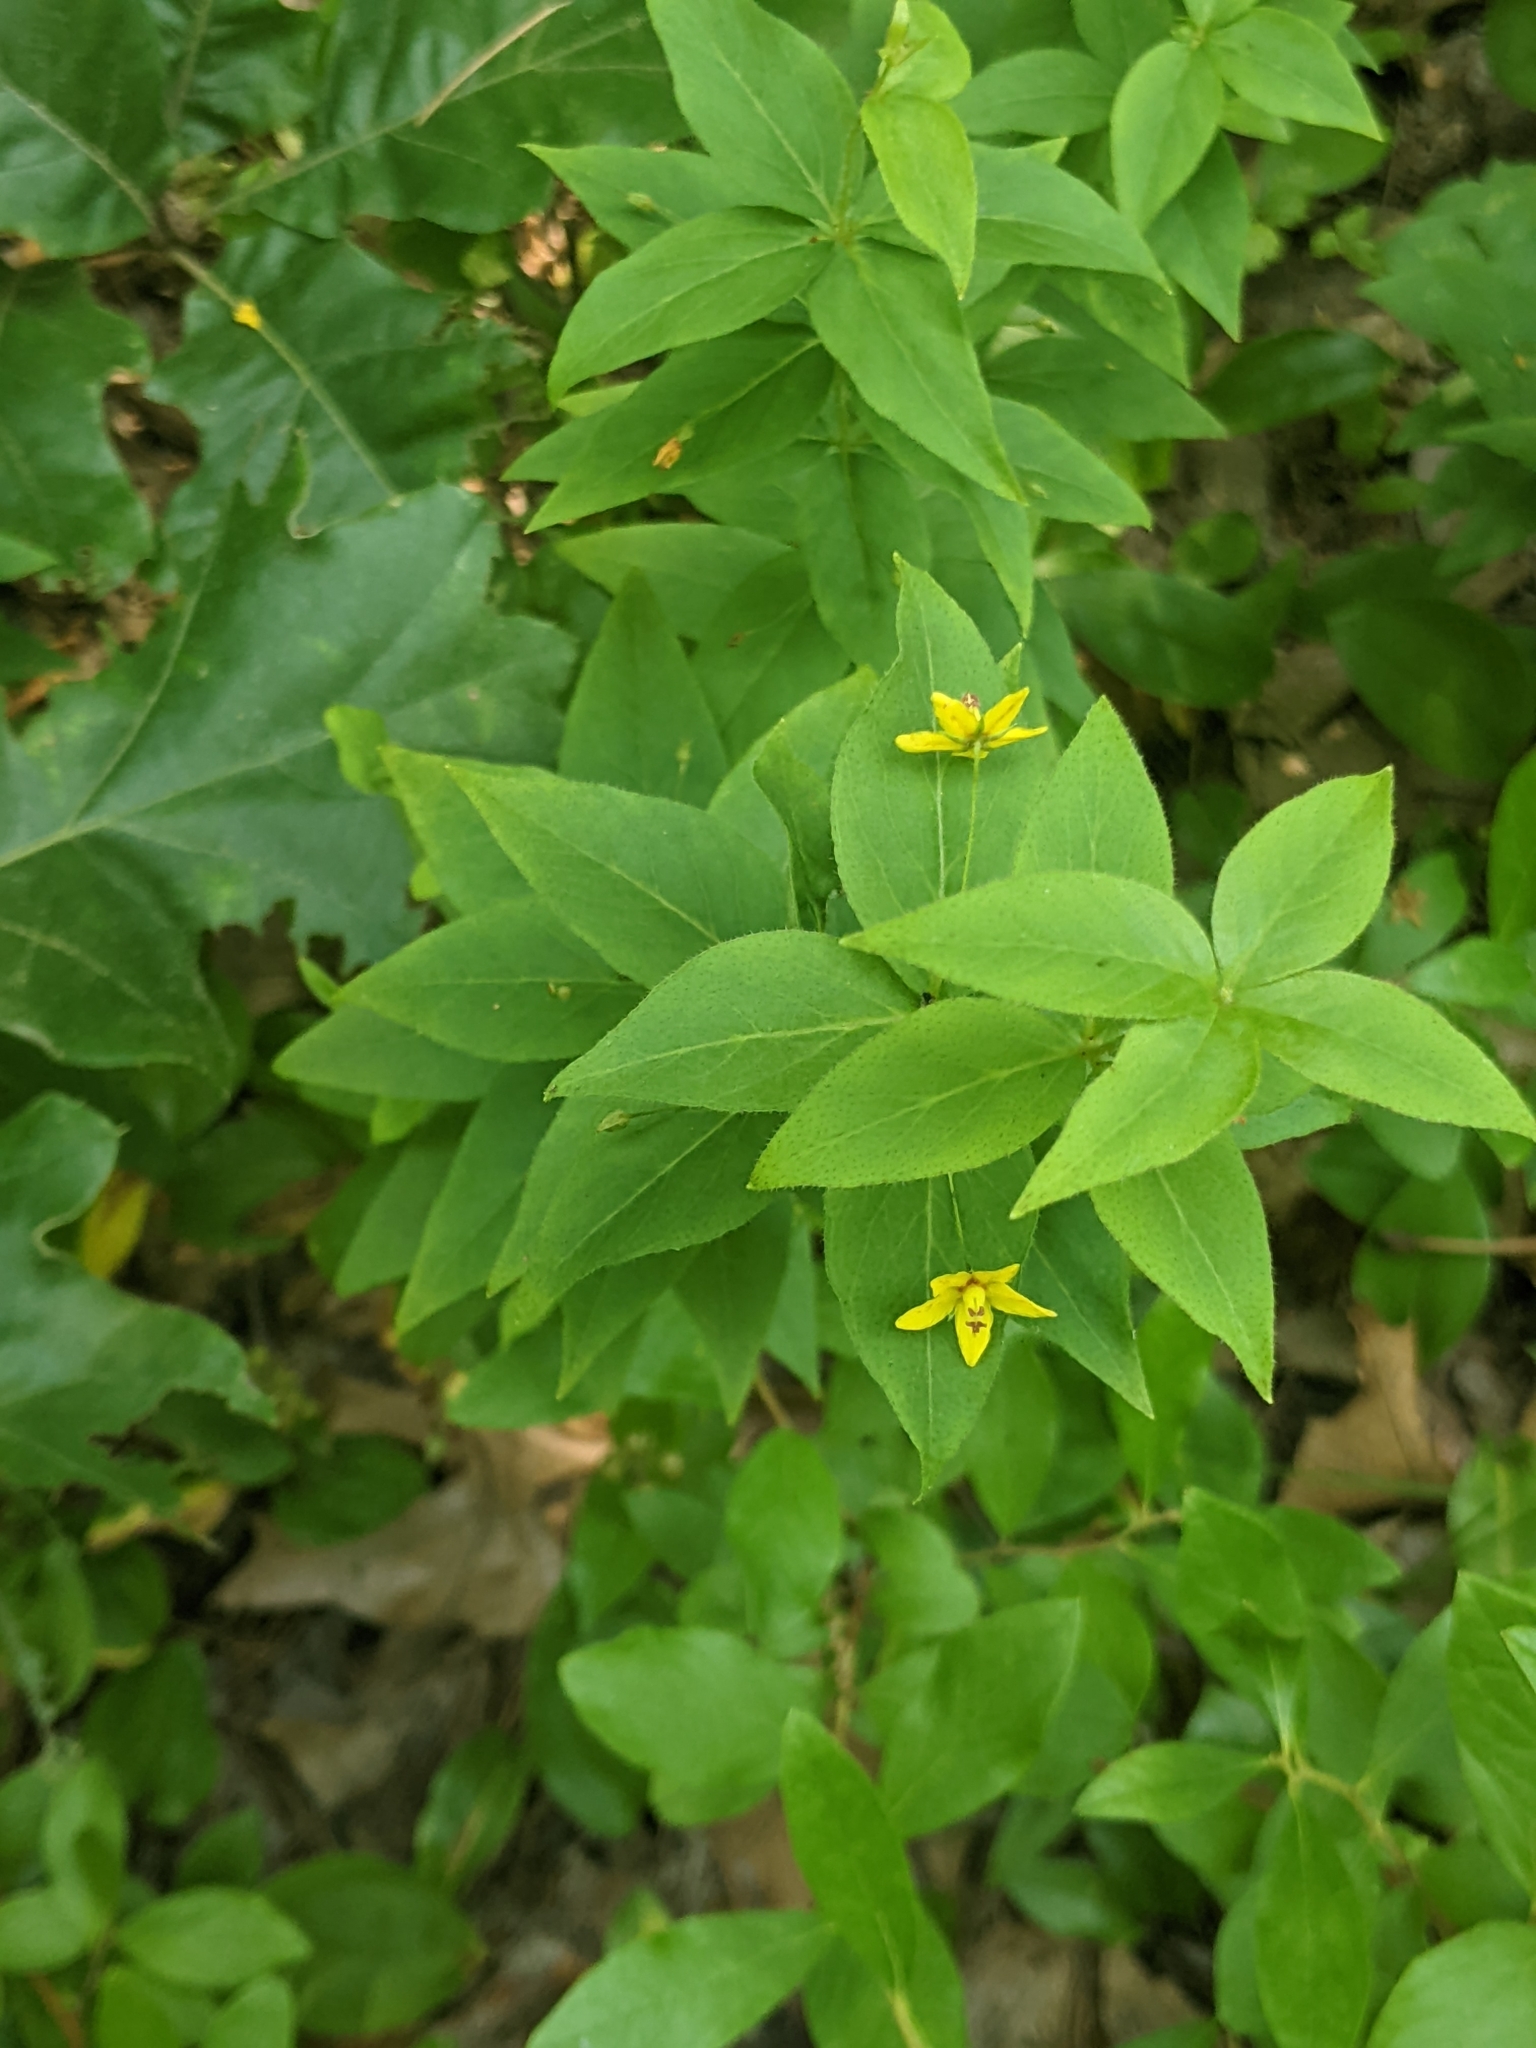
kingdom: Plantae
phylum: Tracheophyta
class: Magnoliopsida
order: Ericales
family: Primulaceae
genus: Lysimachia
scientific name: Lysimachia quadrifolia
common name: Whorled loosestrife
